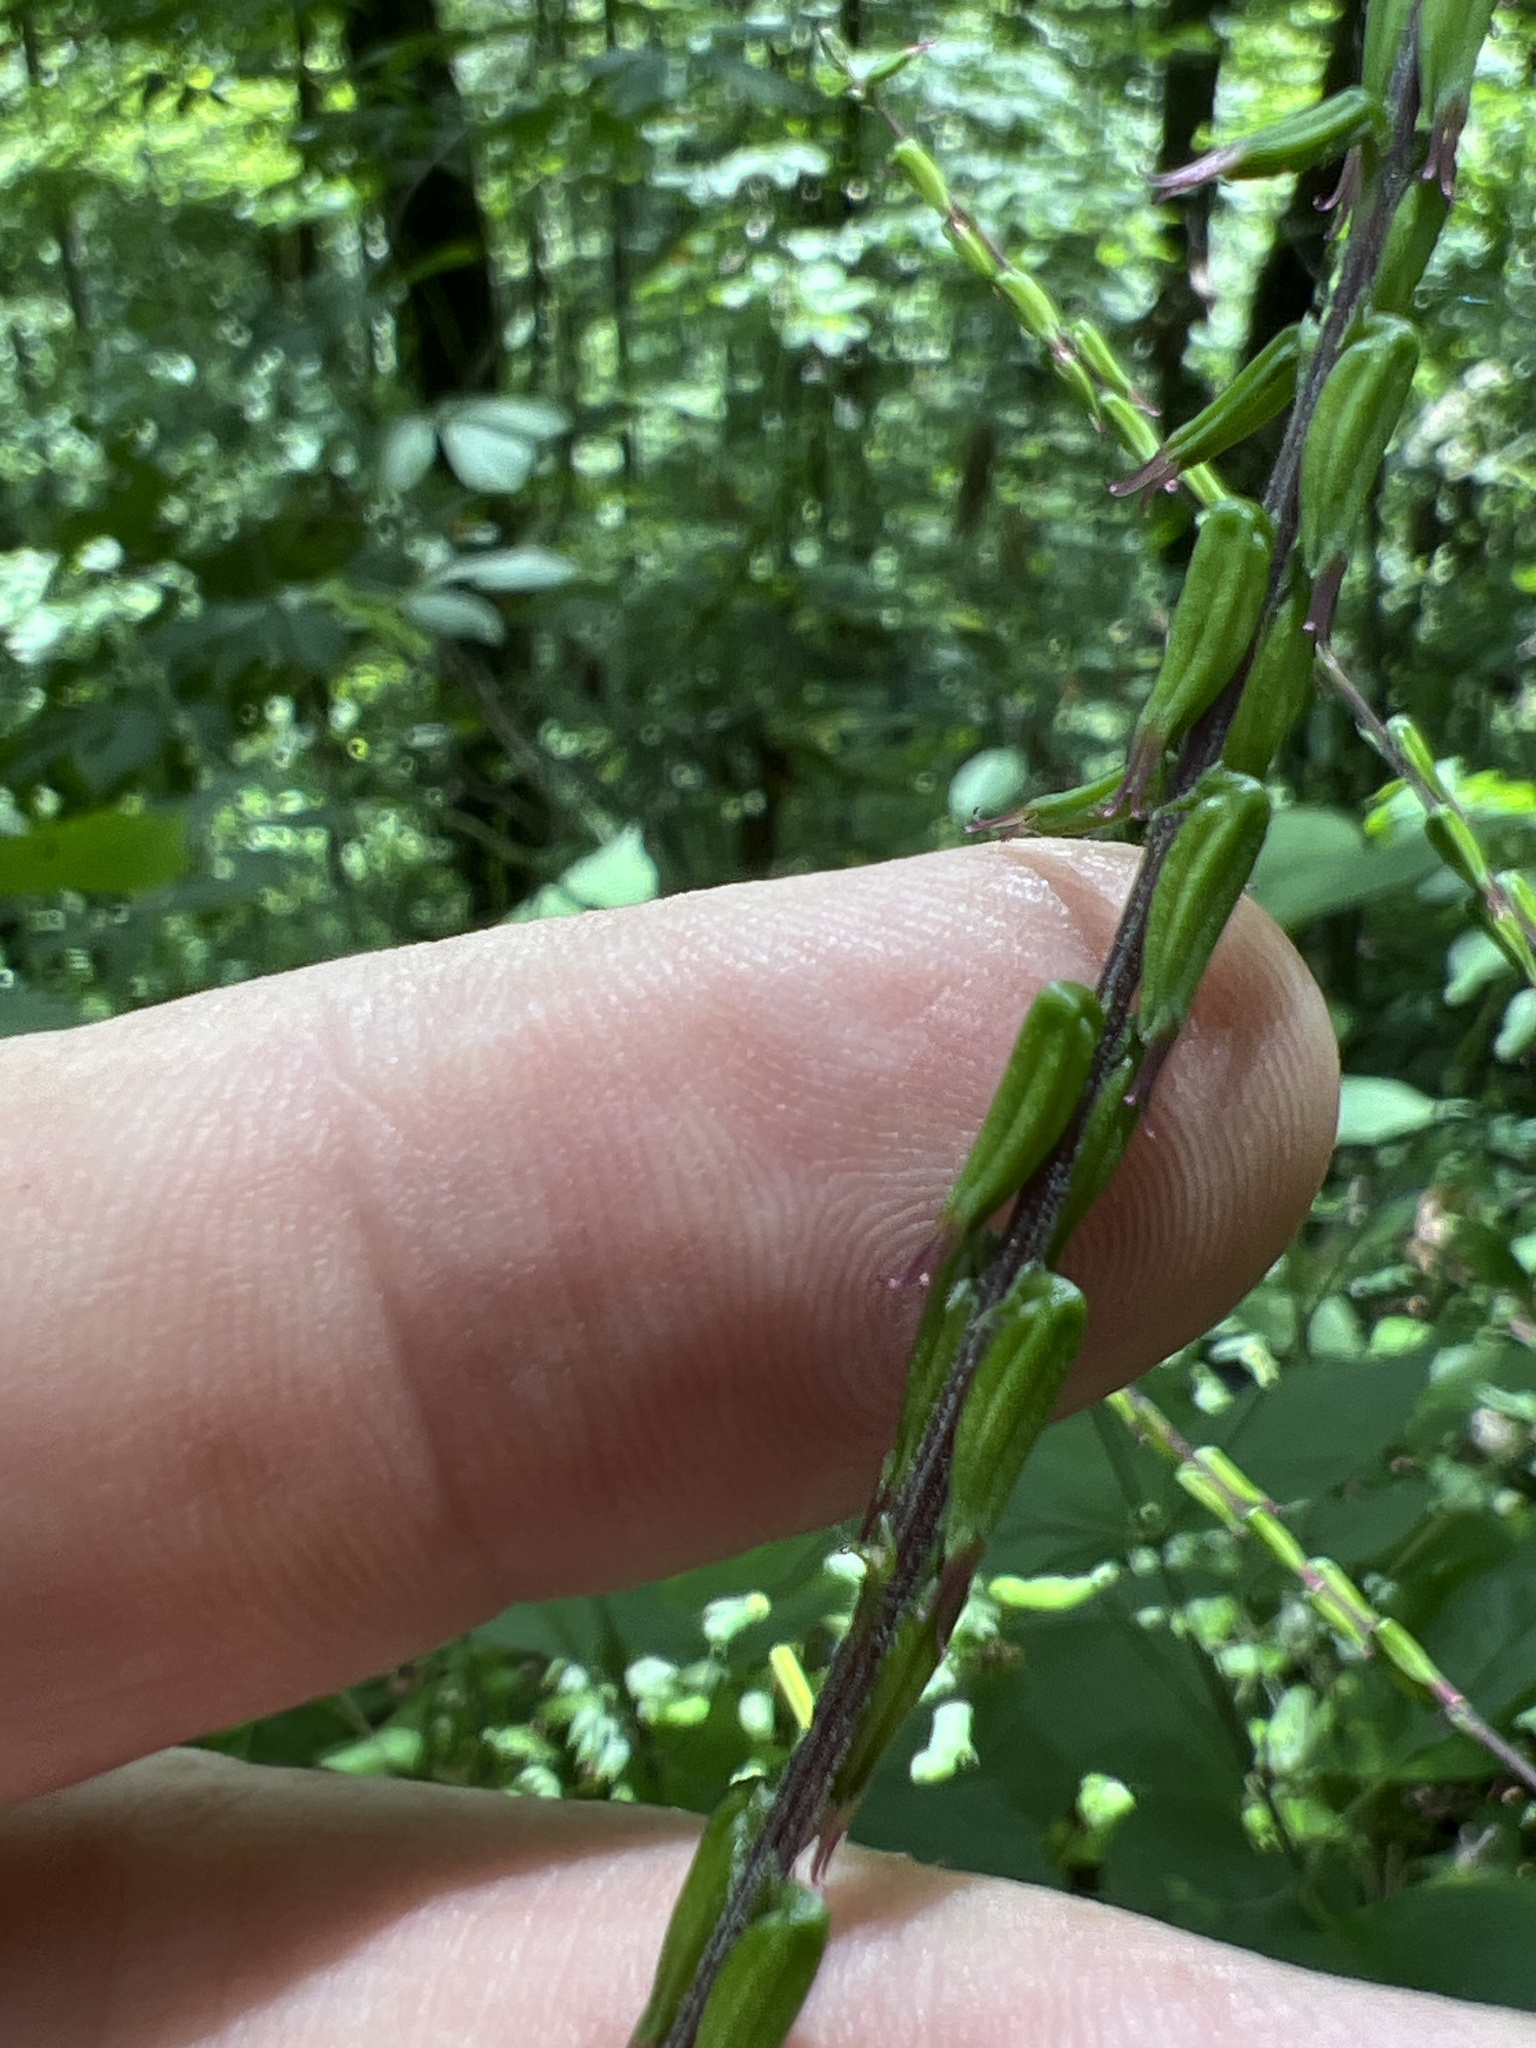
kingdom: Plantae
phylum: Tracheophyta
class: Magnoliopsida
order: Lamiales
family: Phrymaceae
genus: Phryma
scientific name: Phryma leptostachya
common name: American lopseed
